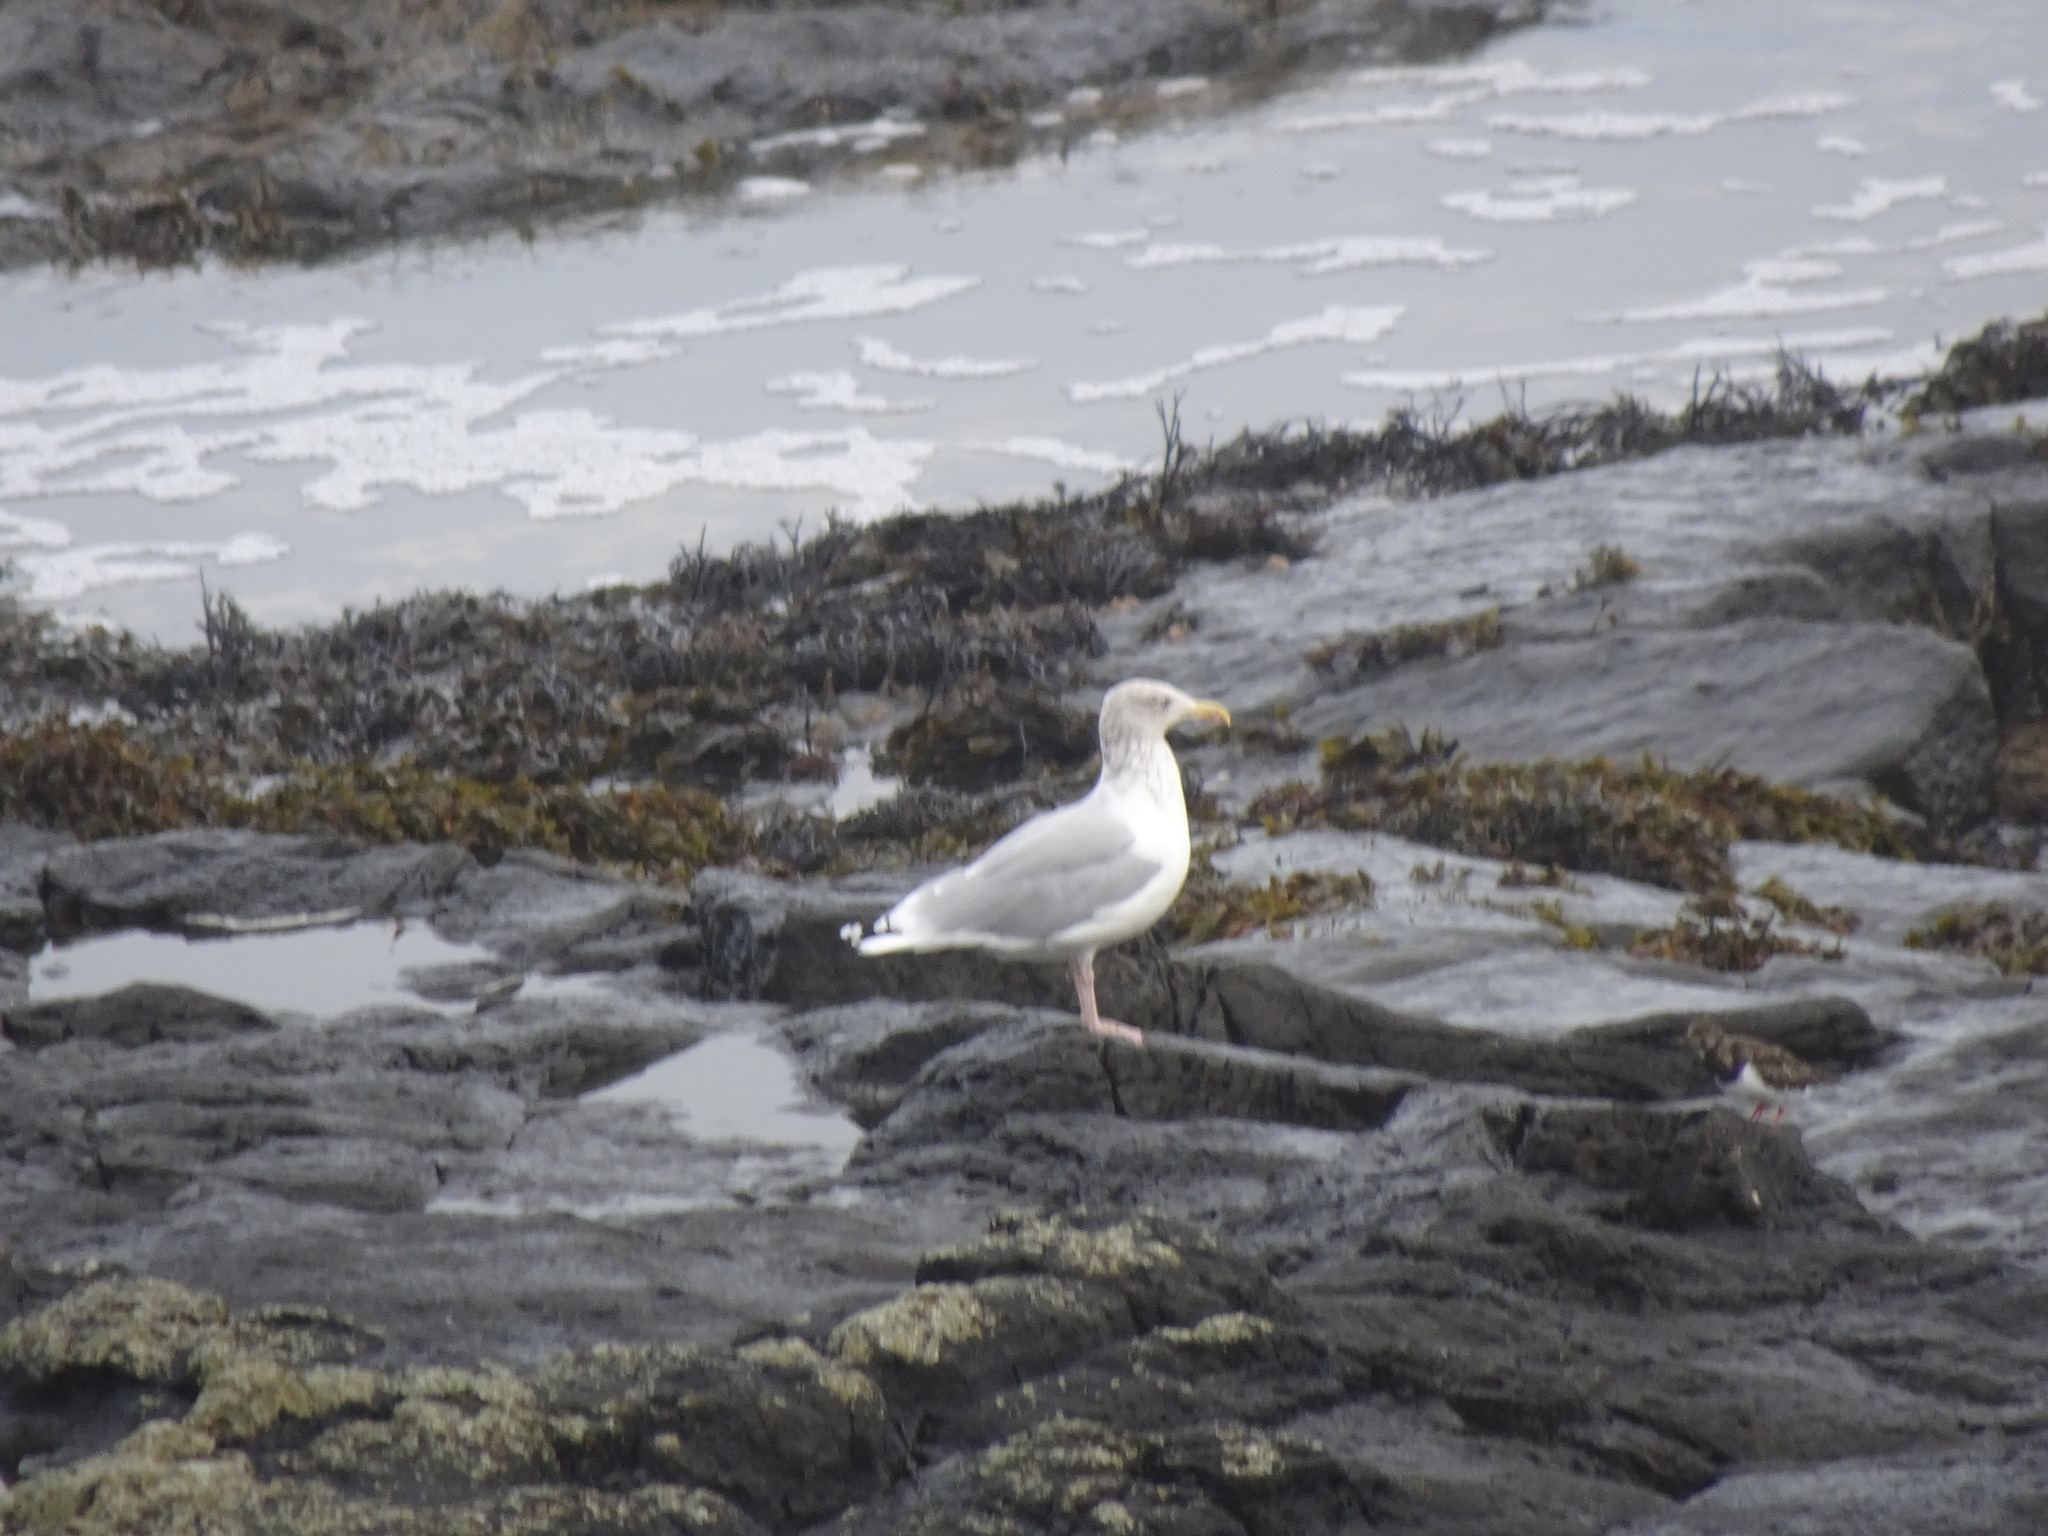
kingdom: Animalia
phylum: Chordata
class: Aves
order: Charadriiformes
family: Laridae
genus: Larus
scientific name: Larus argentatus
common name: Herring gull
